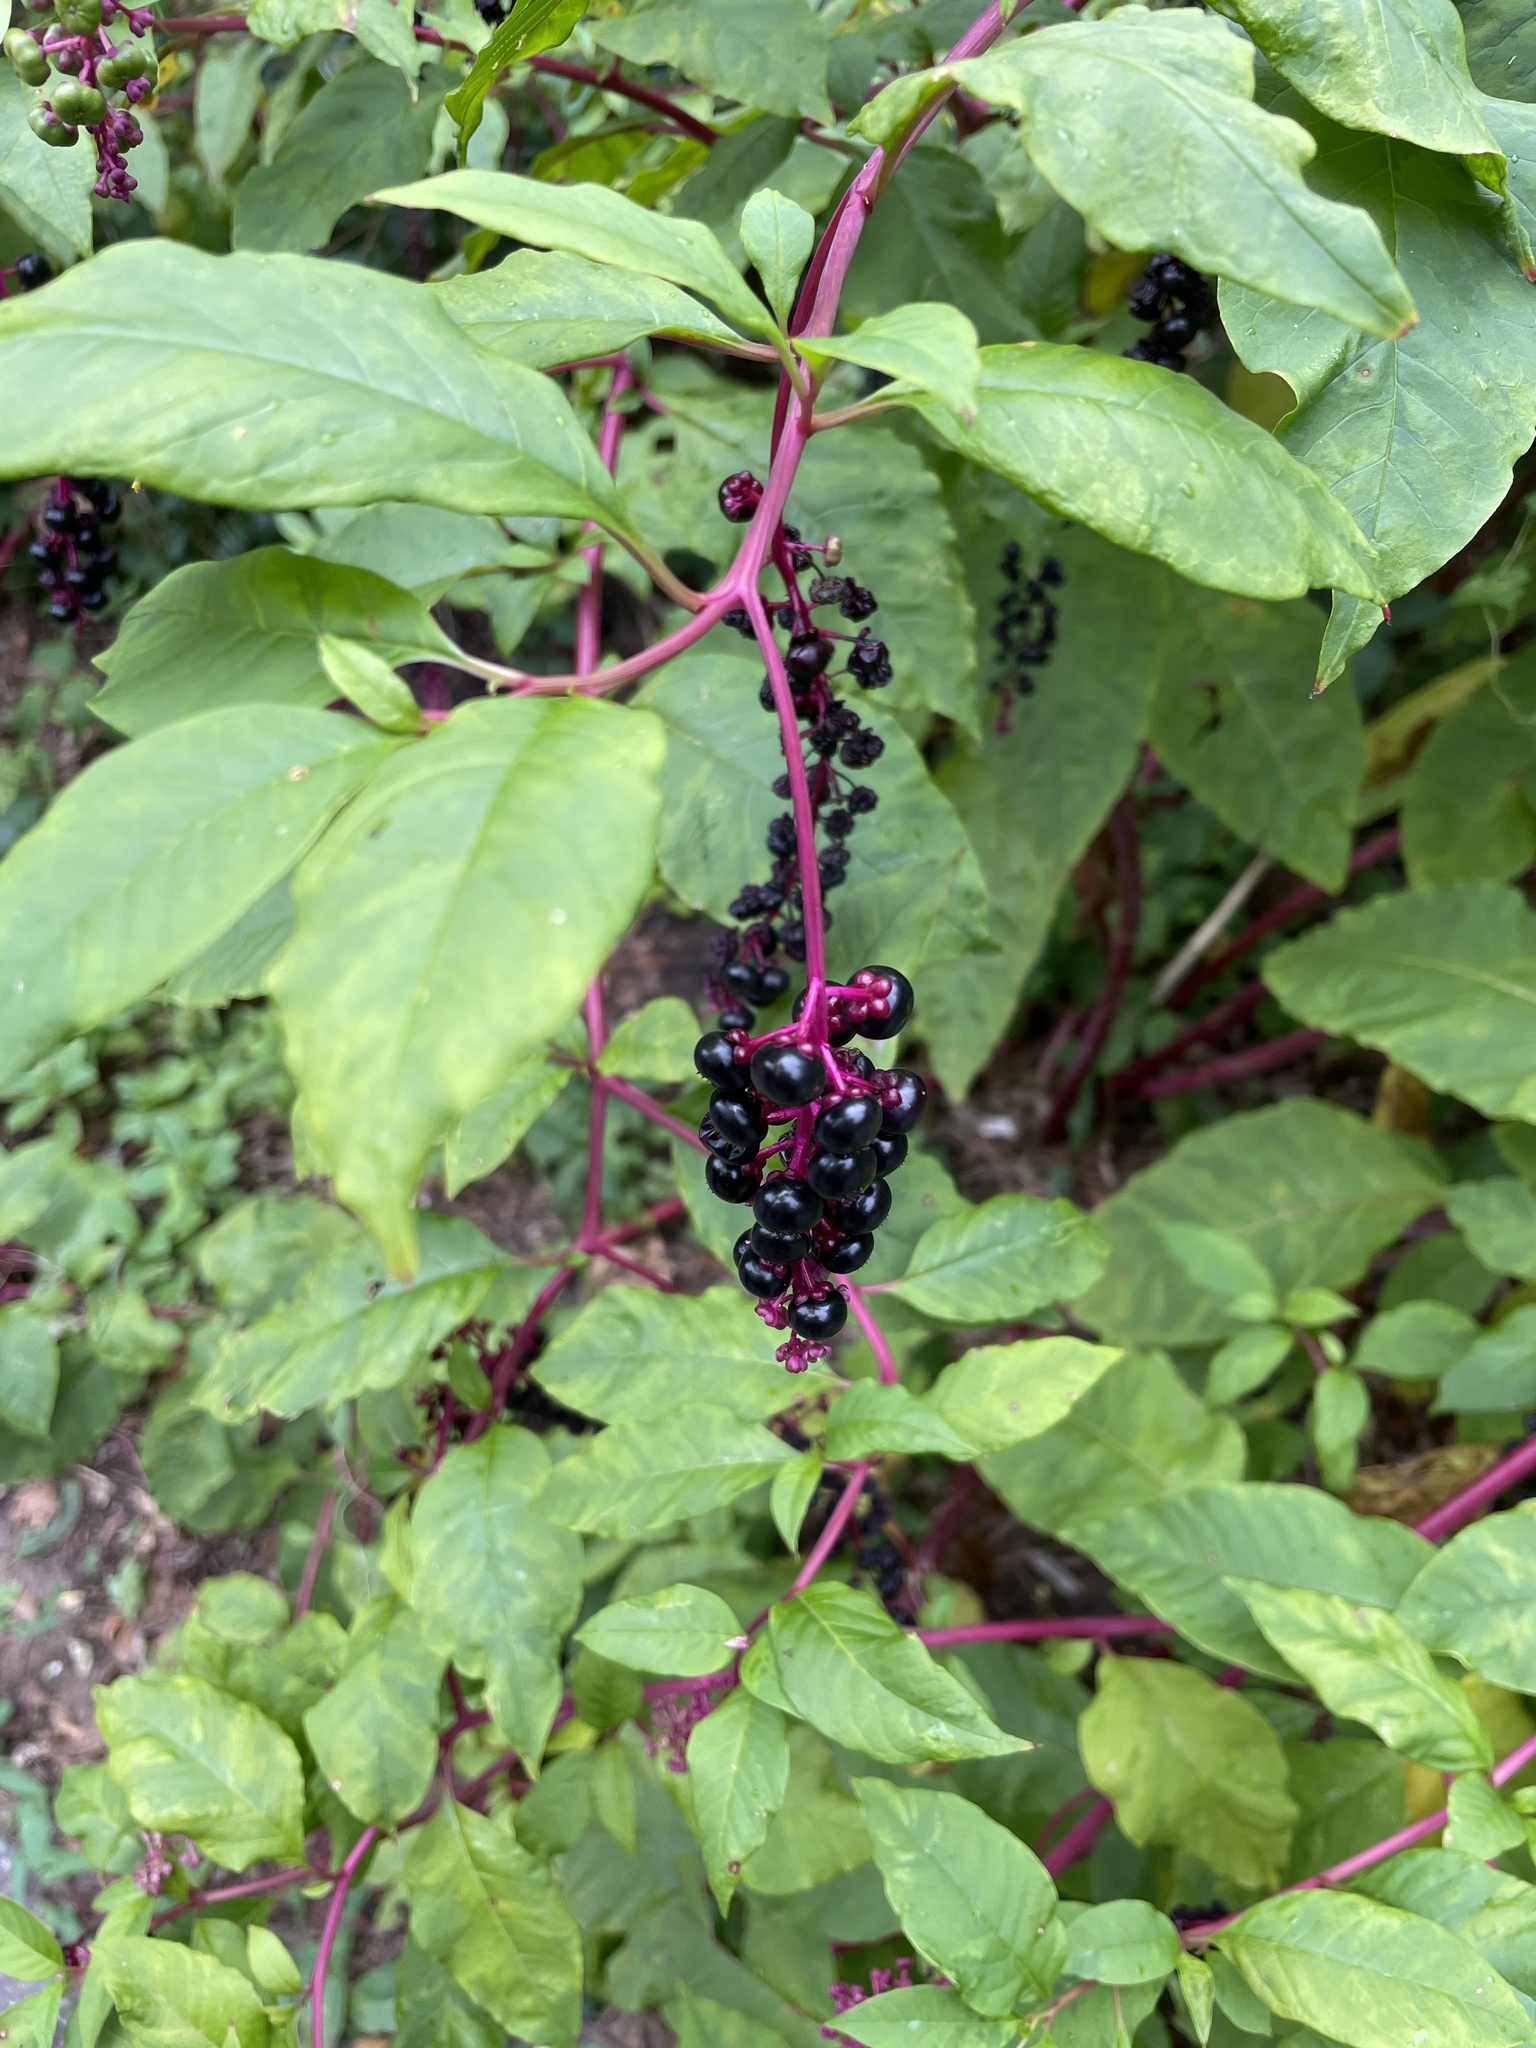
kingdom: Plantae
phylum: Tracheophyta
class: Magnoliopsida
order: Caryophyllales
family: Phytolaccaceae
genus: Phytolacca
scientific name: Phytolacca americana
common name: American pokeweed
